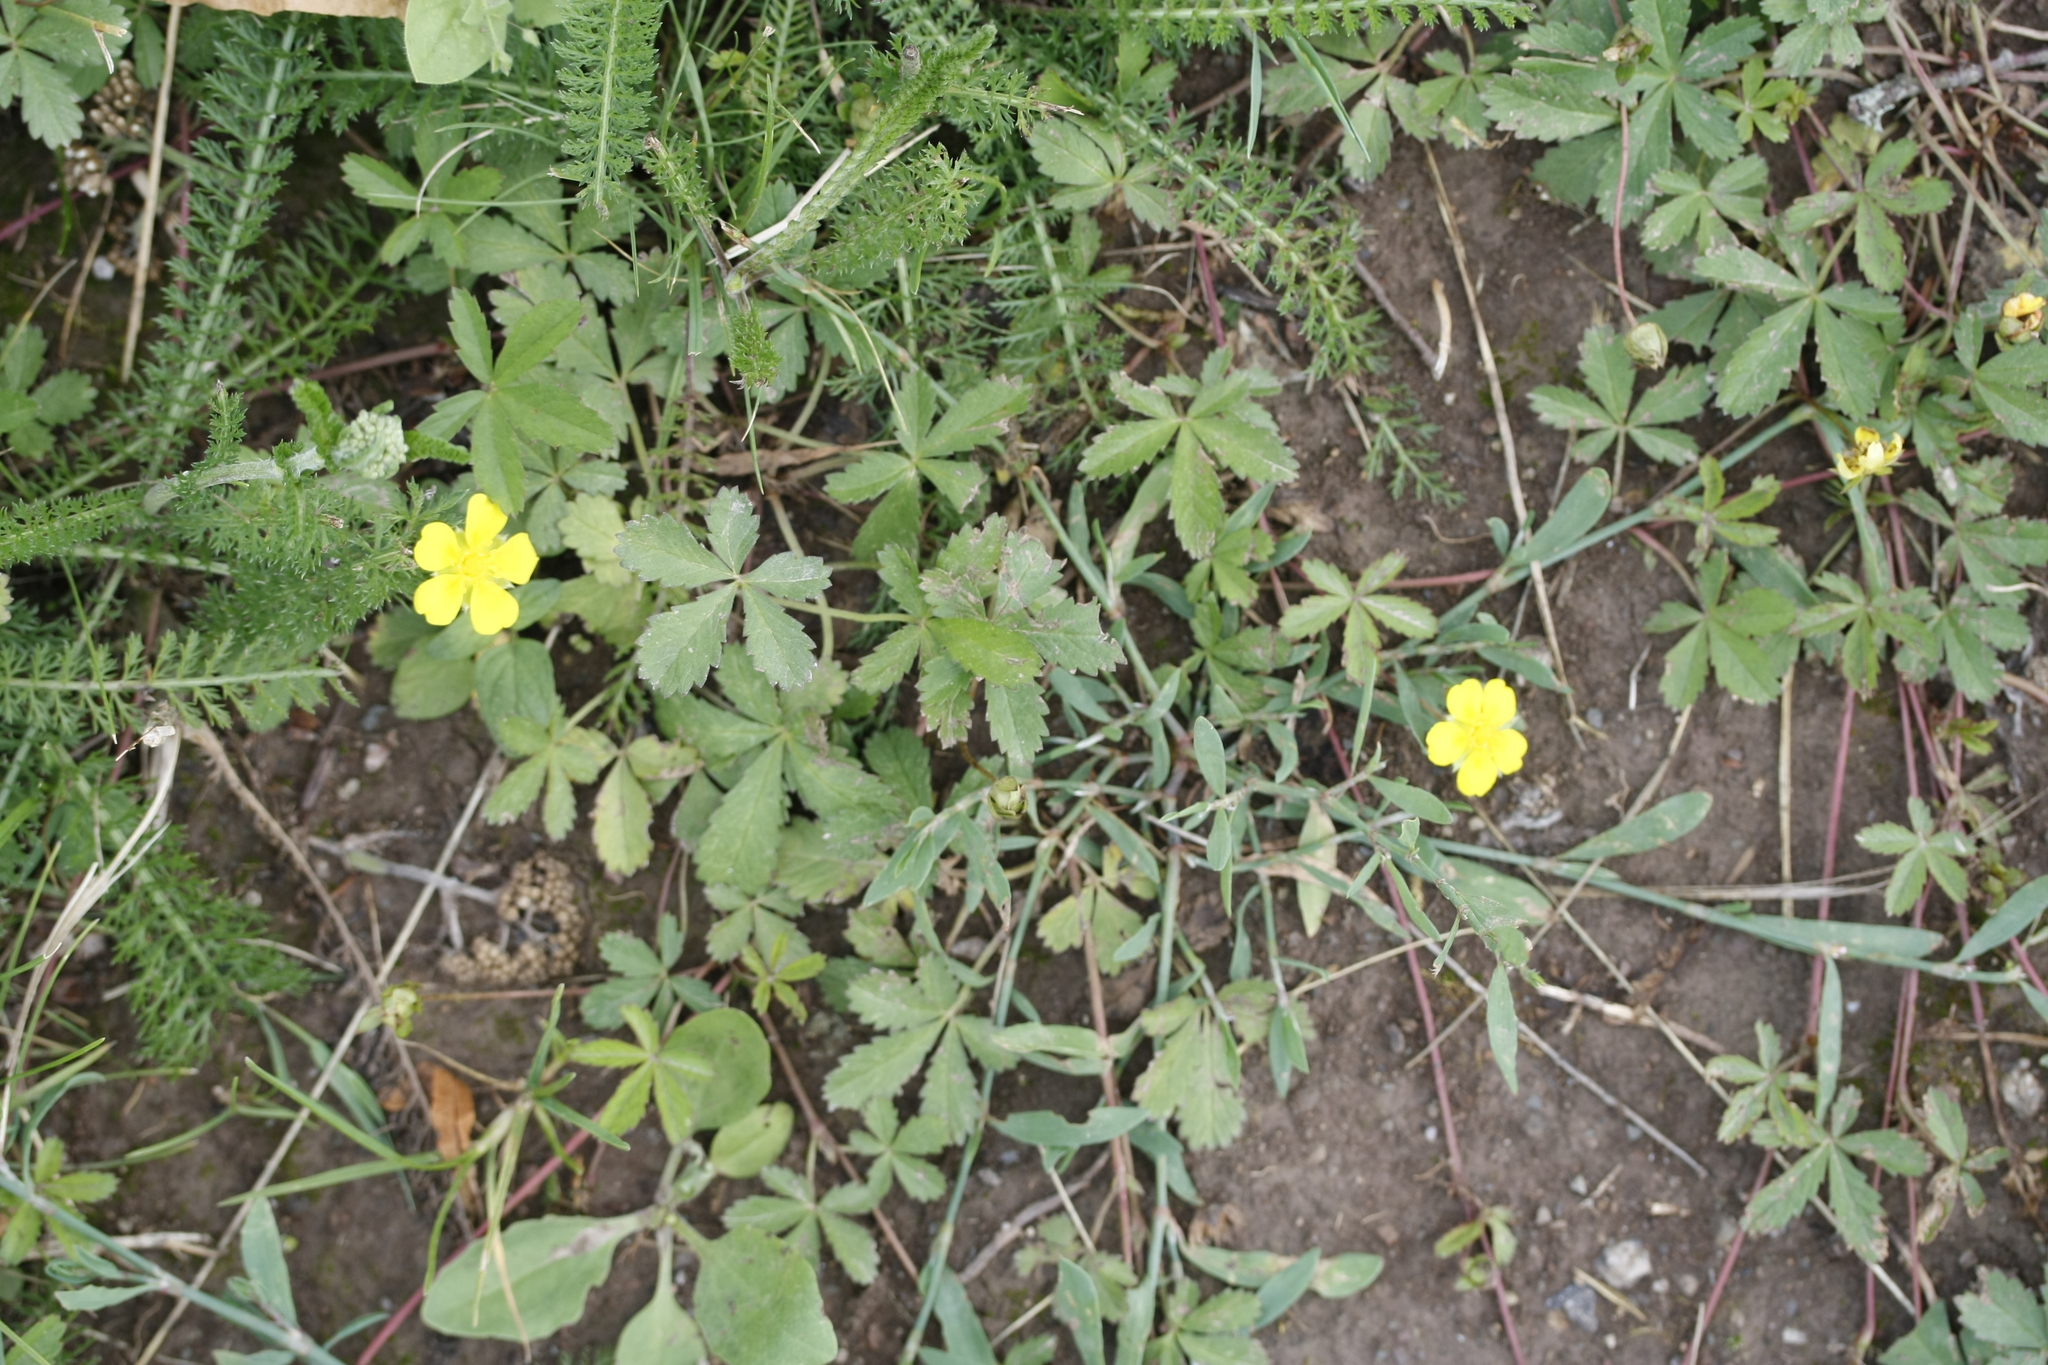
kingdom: Plantae
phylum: Tracheophyta
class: Magnoliopsida
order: Rosales
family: Rosaceae
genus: Potentilla
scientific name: Potentilla reptans
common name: Creeping cinquefoil
